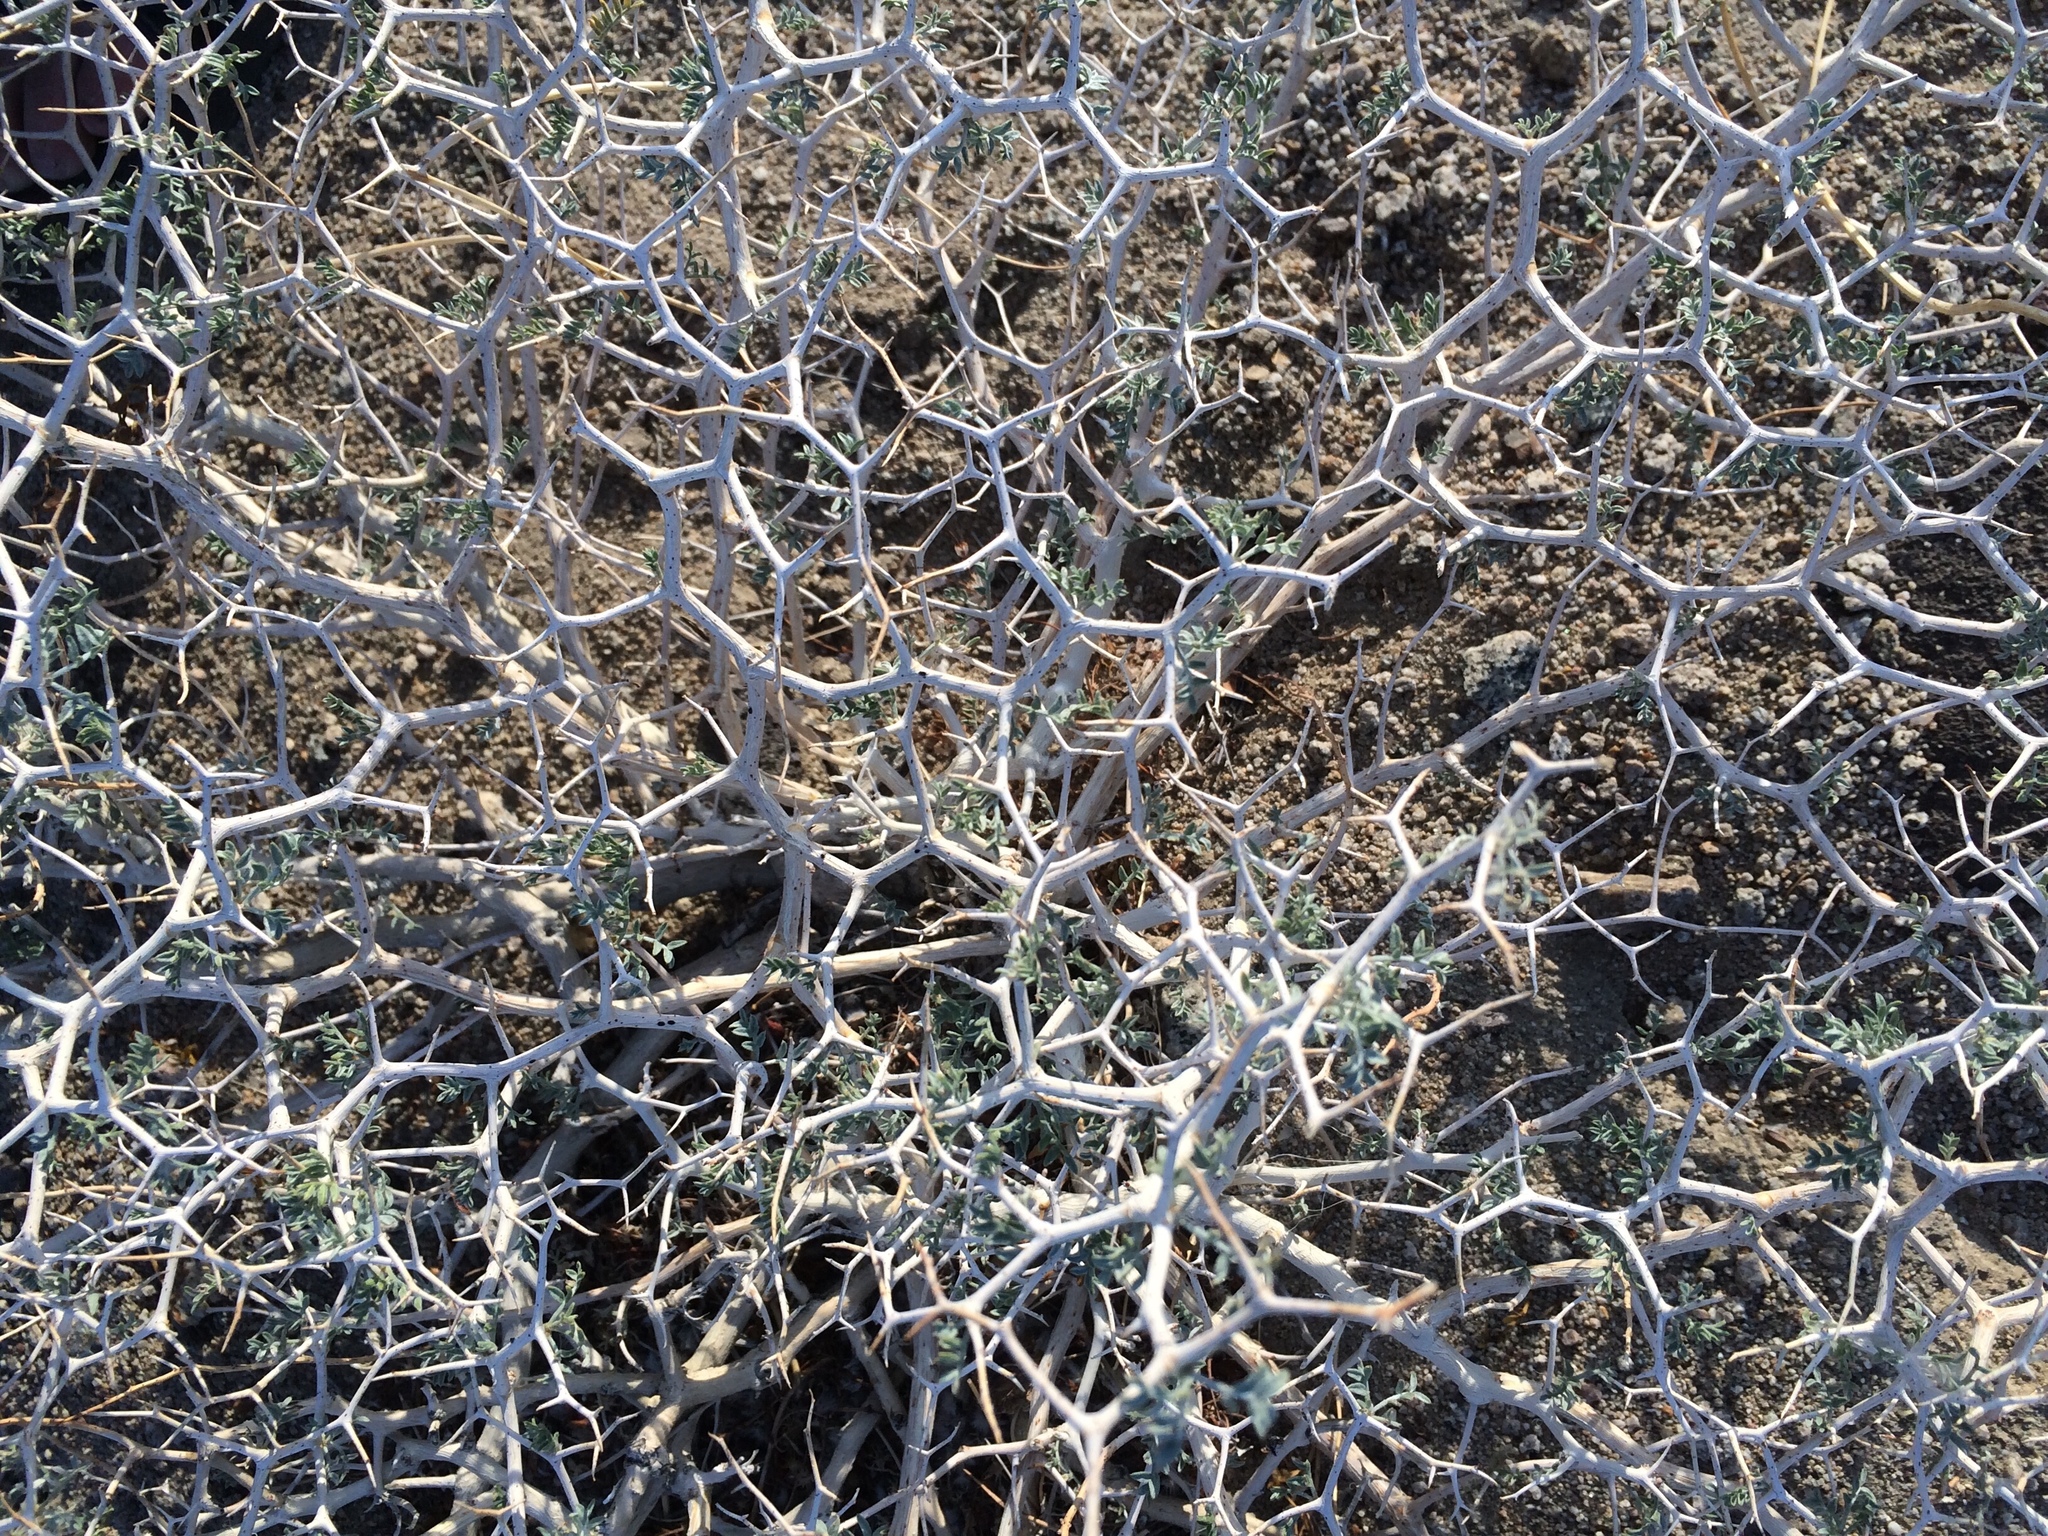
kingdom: Plantae
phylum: Tracheophyta
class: Magnoliopsida
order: Fabales
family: Fabaceae
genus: Psorothamnus
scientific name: Psorothamnus arborescens
